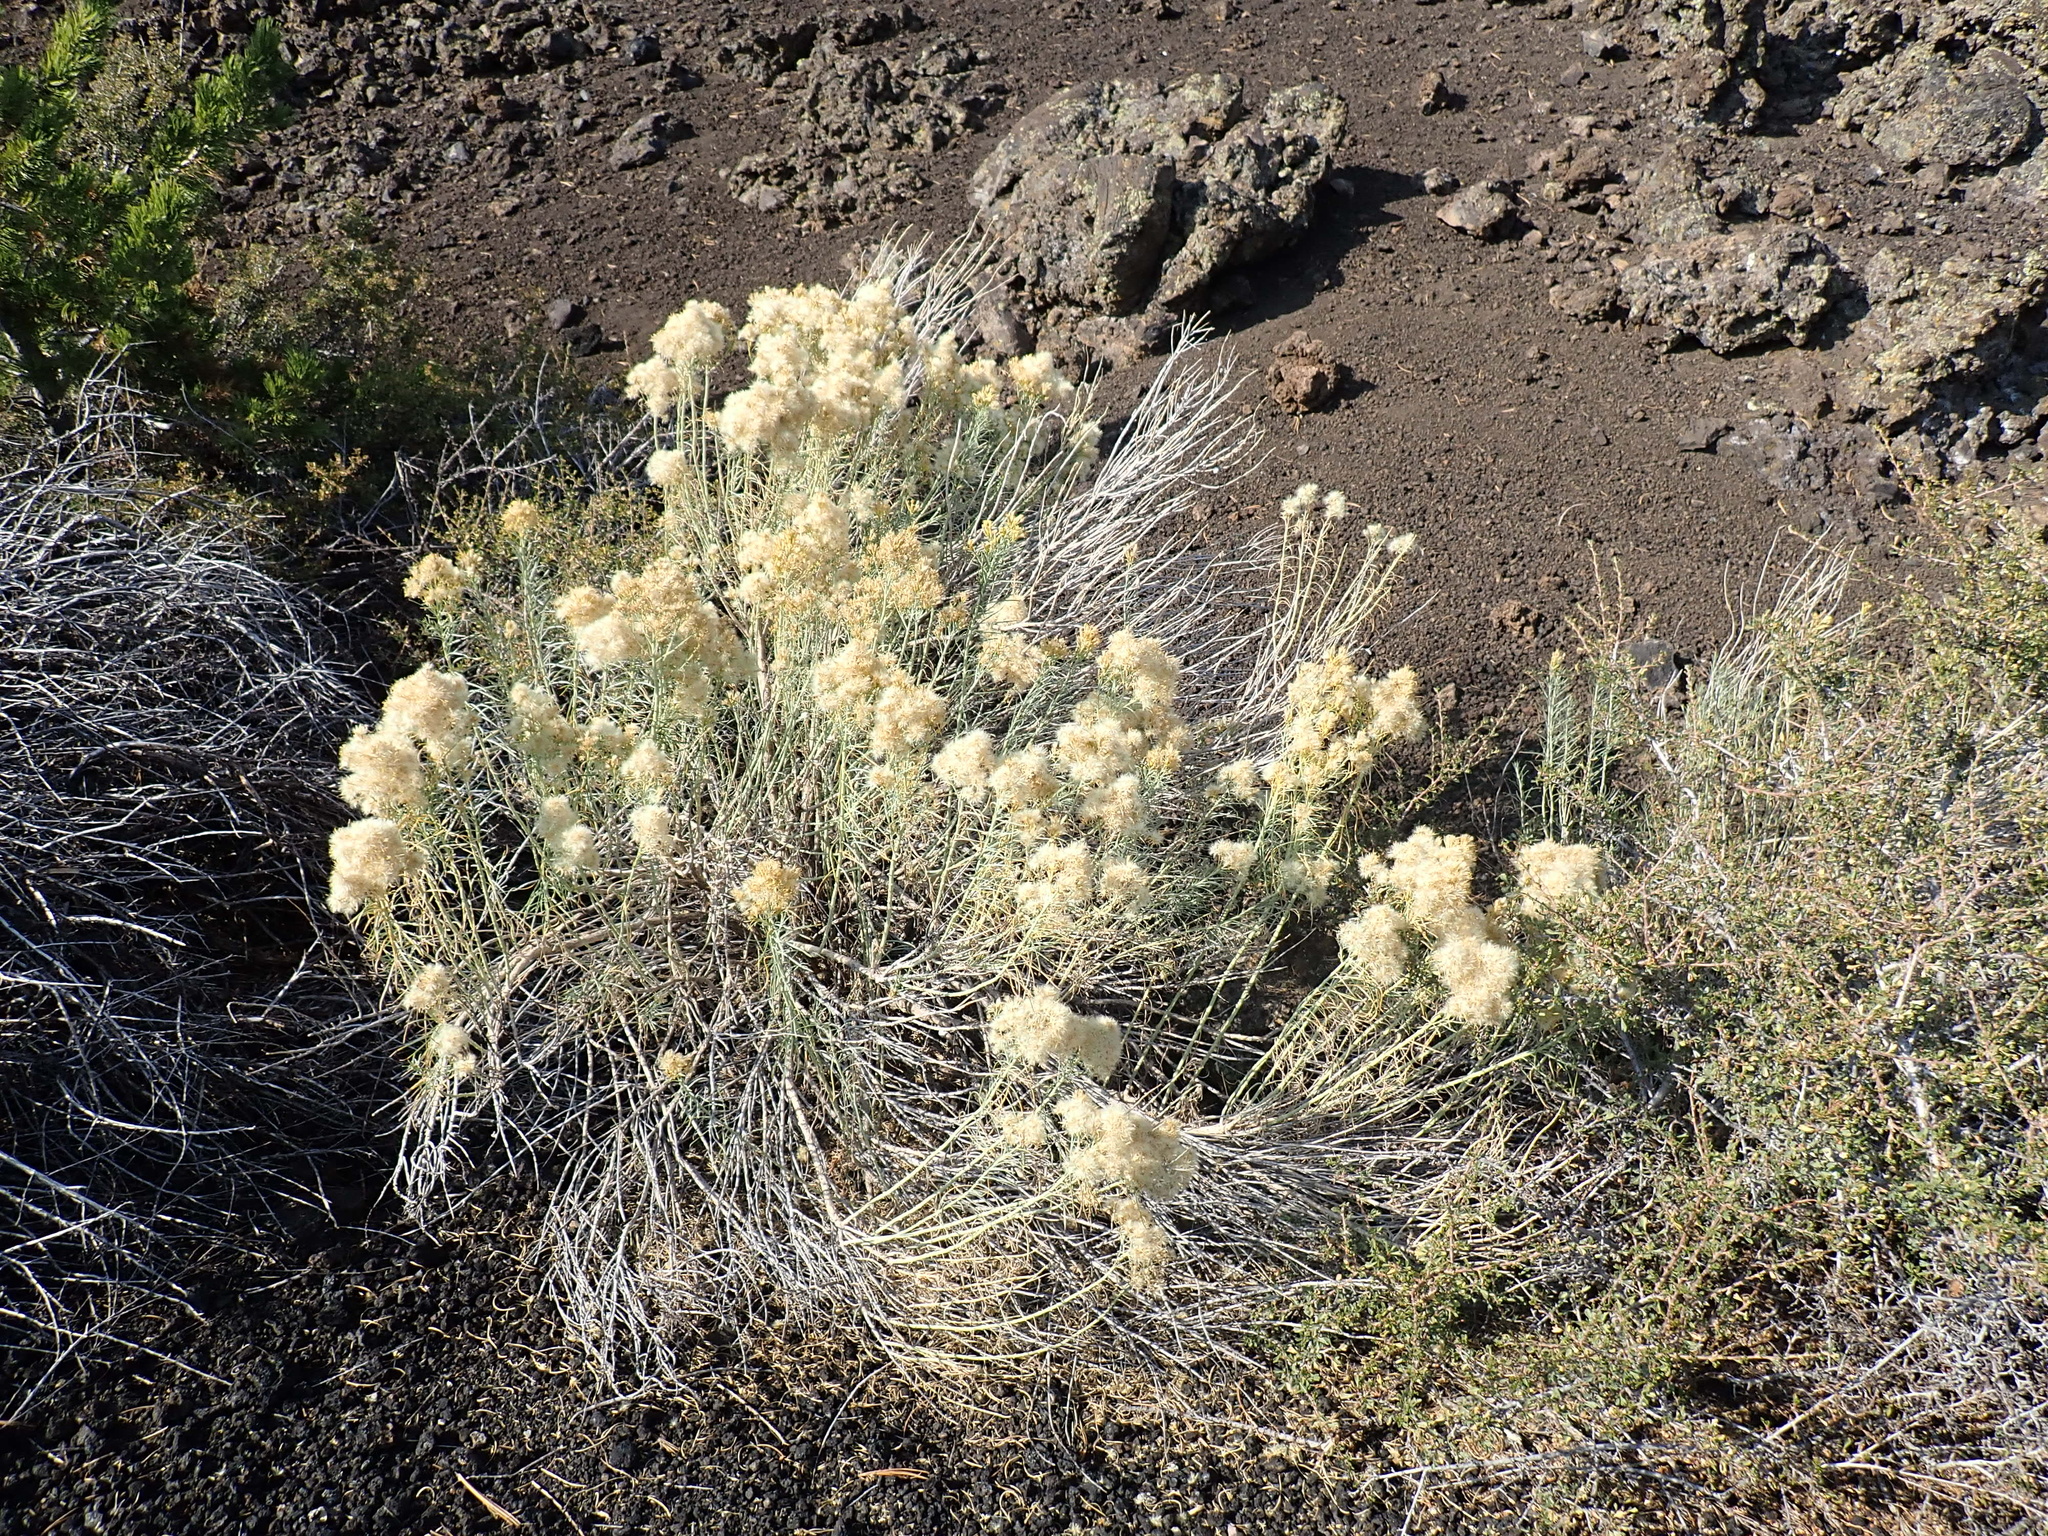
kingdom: Plantae
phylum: Tracheophyta
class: Magnoliopsida
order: Asterales
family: Asteraceae
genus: Ericameria
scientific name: Ericameria nauseosa
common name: Rubber rabbitbrush
